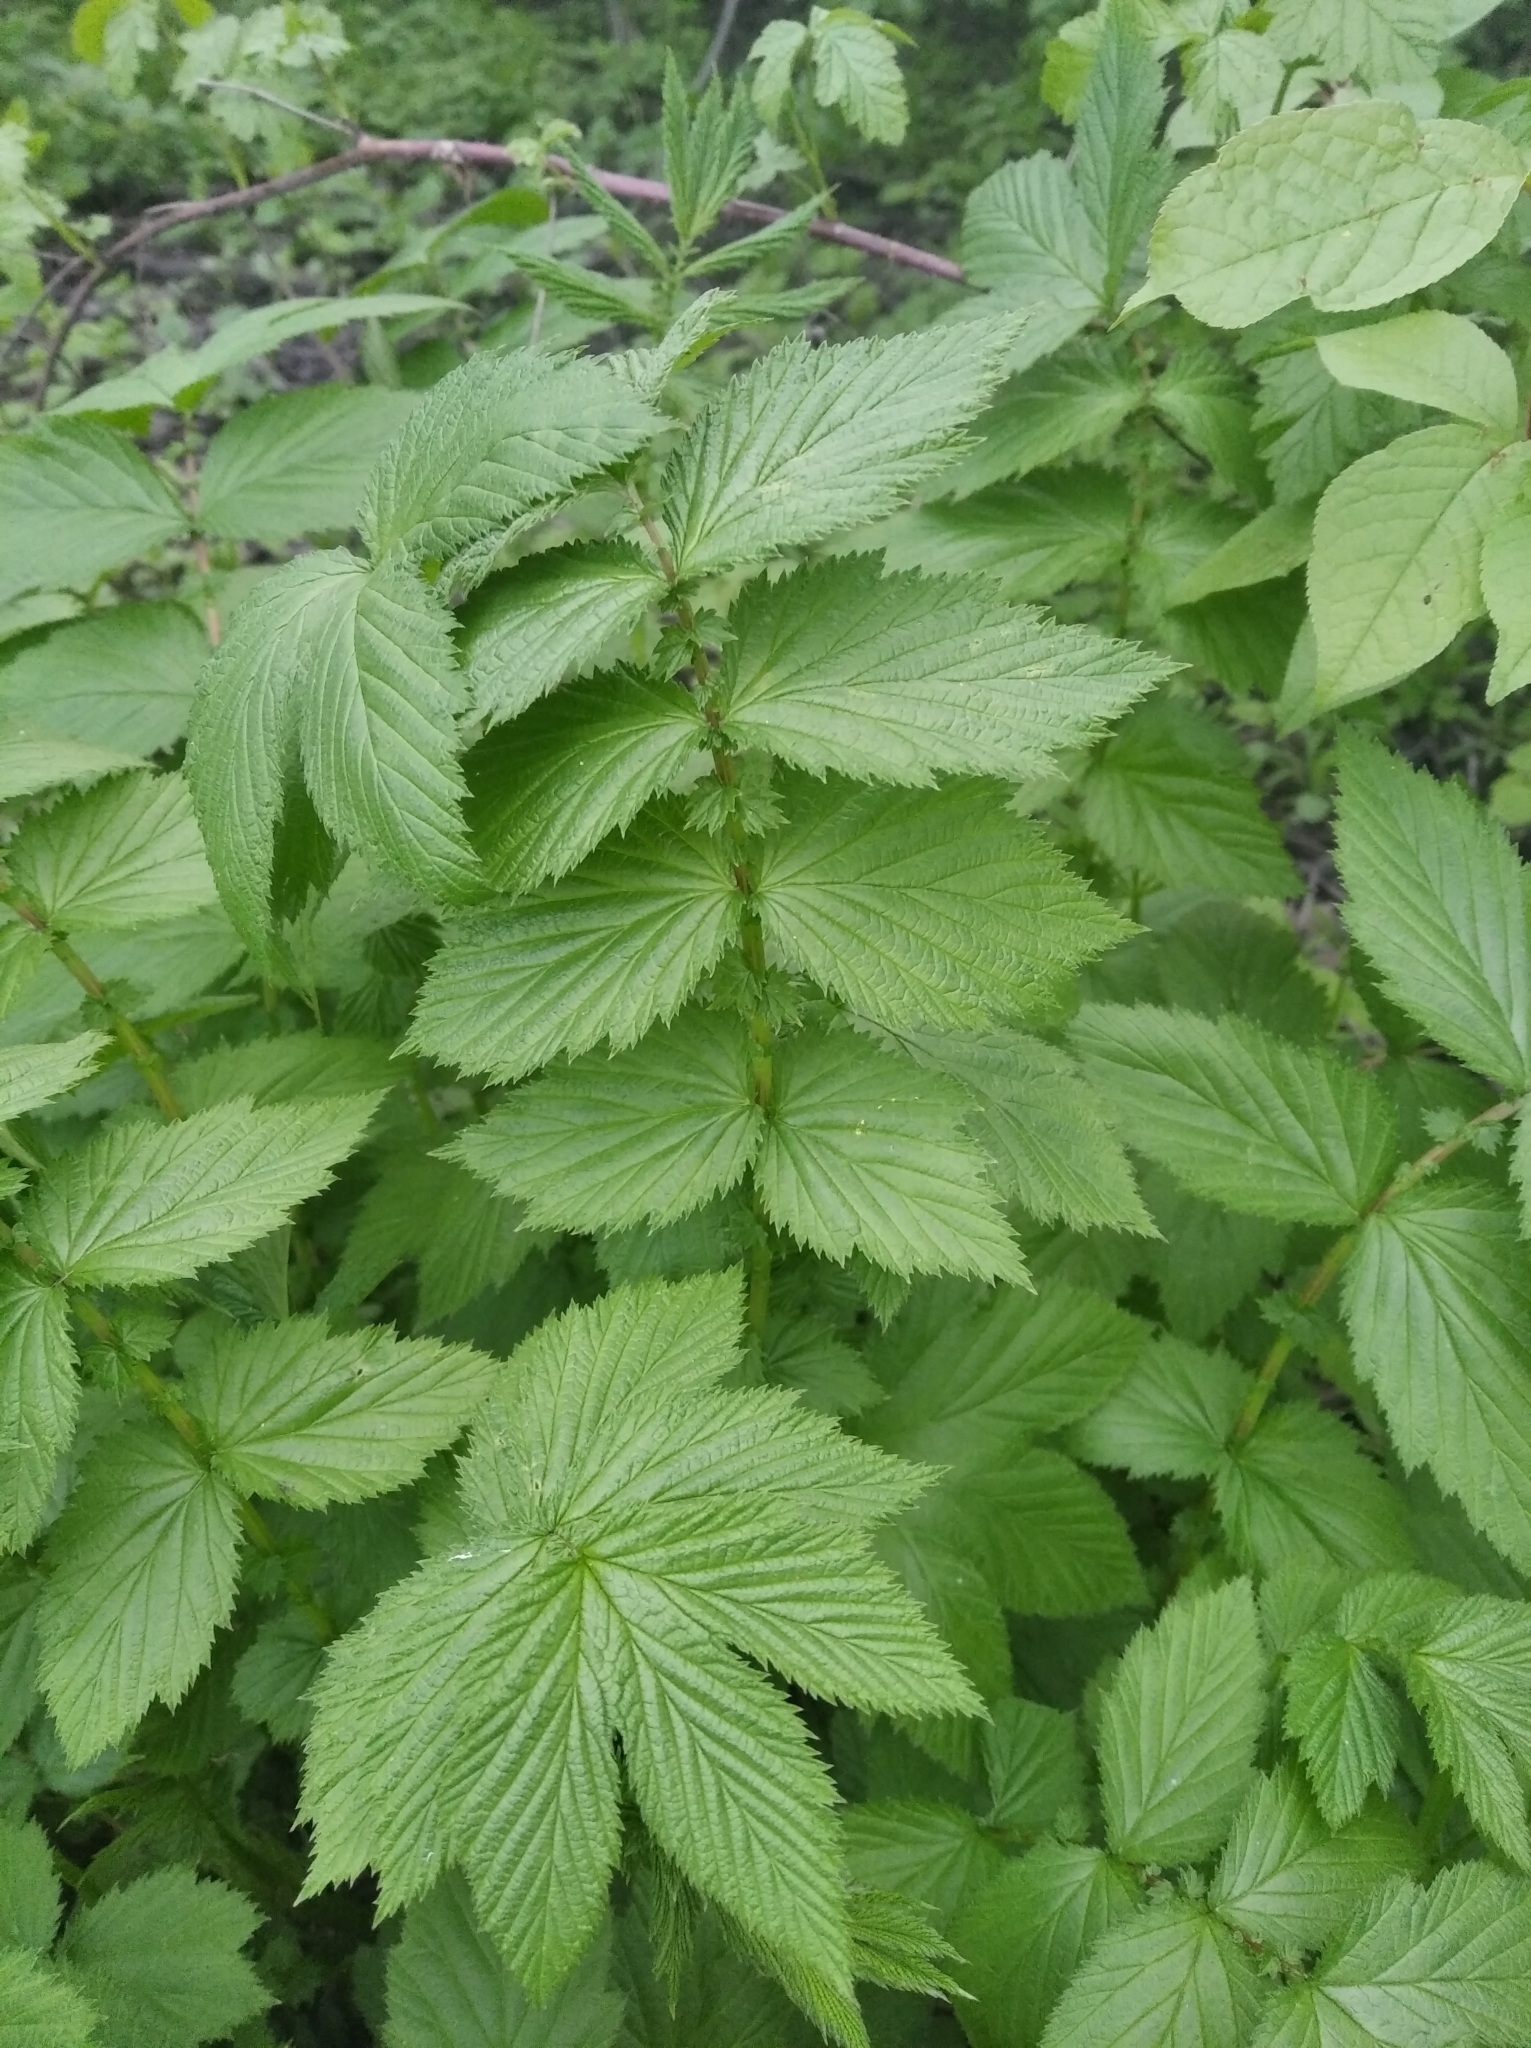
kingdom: Plantae
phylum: Tracheophyta
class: Magnoliopsida
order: Rosales
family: Rosaceae
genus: Filipendula
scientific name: Filipendula ulmaria
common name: Meadowsweet
